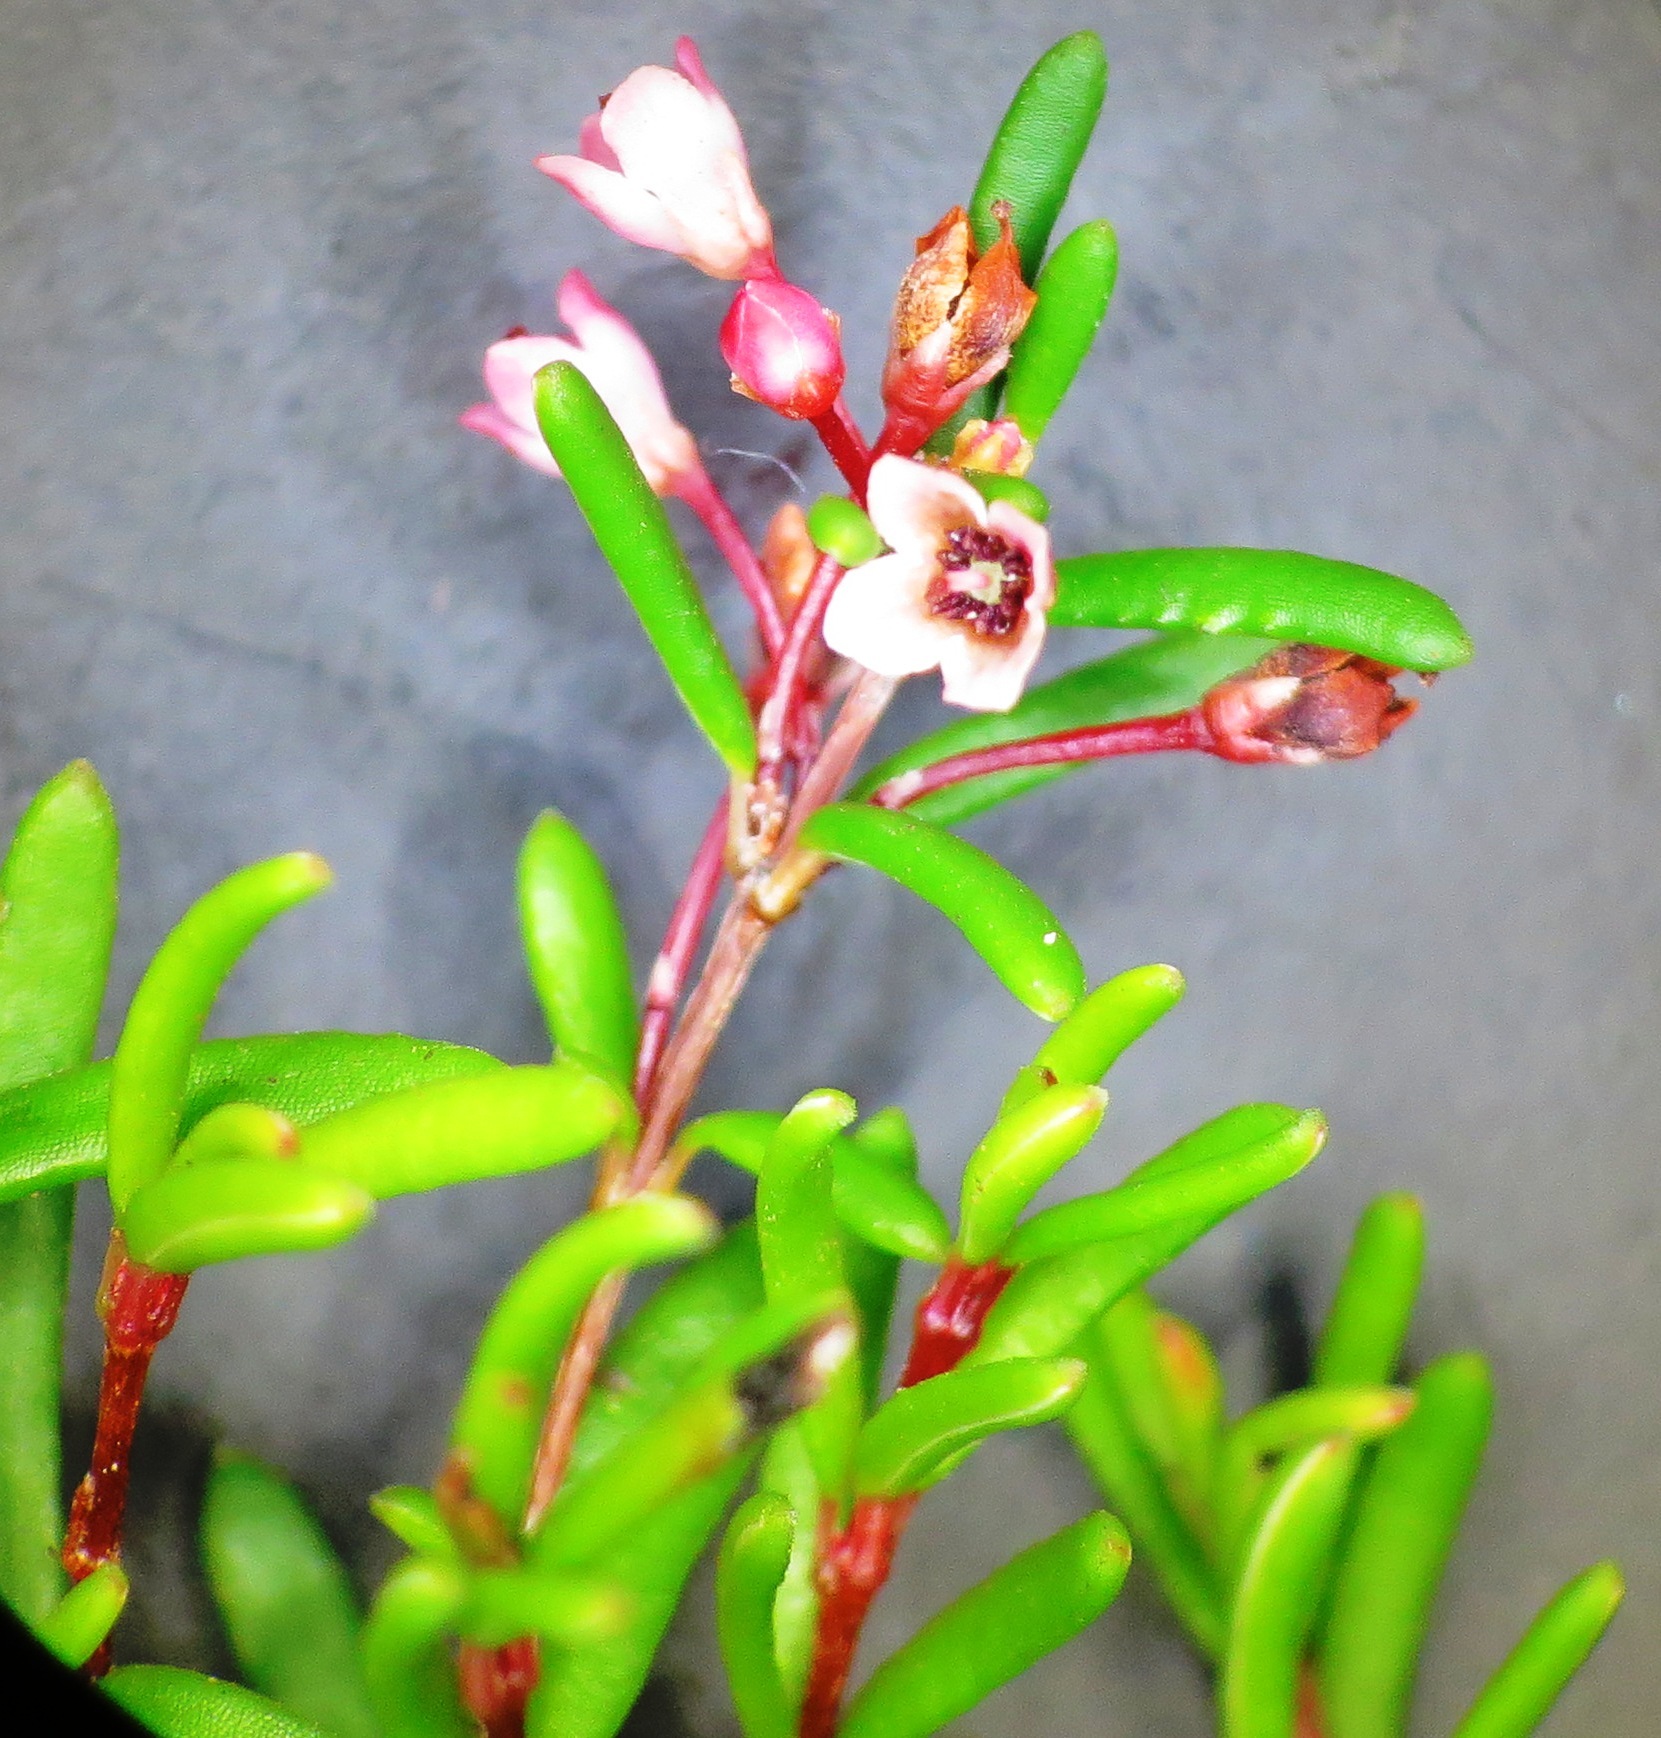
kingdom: Plantae
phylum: Tracheophyta
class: Magnoliopsida
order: Ericales
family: Ericaceae
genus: Erica
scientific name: Erica tenuicaulis
